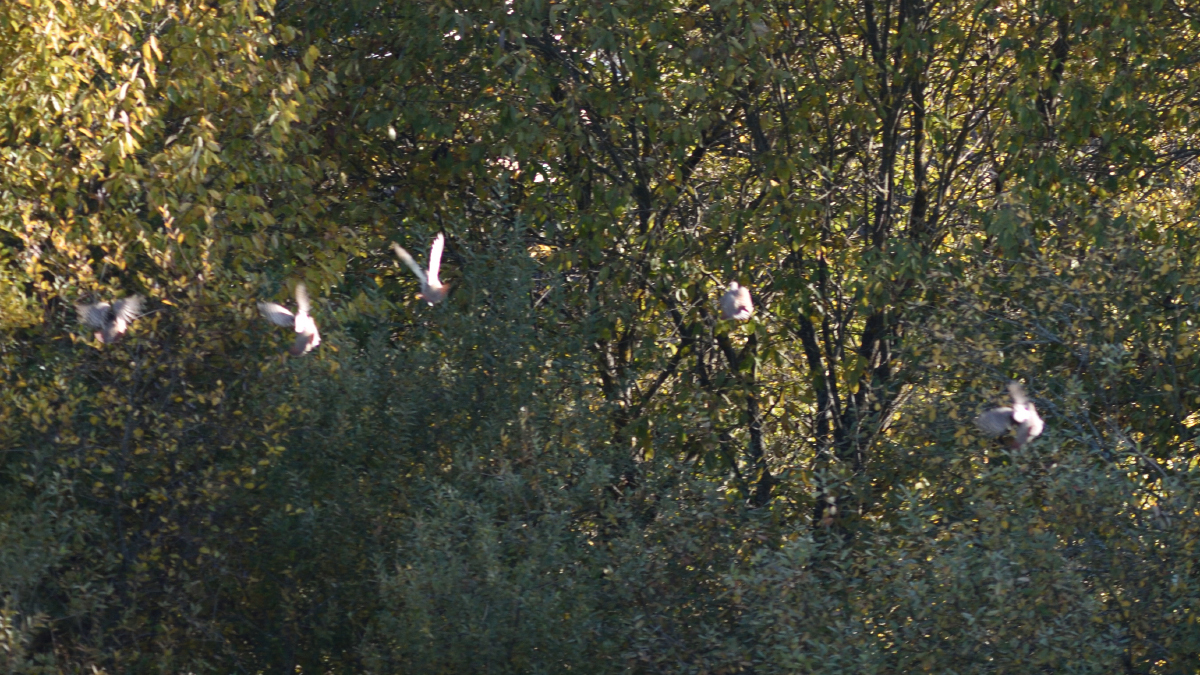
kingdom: Animalia
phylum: Chordata
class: Aves
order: Galliformes
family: Phasianidae
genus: Perdix
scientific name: Perdix perdix
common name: Grey partridge
